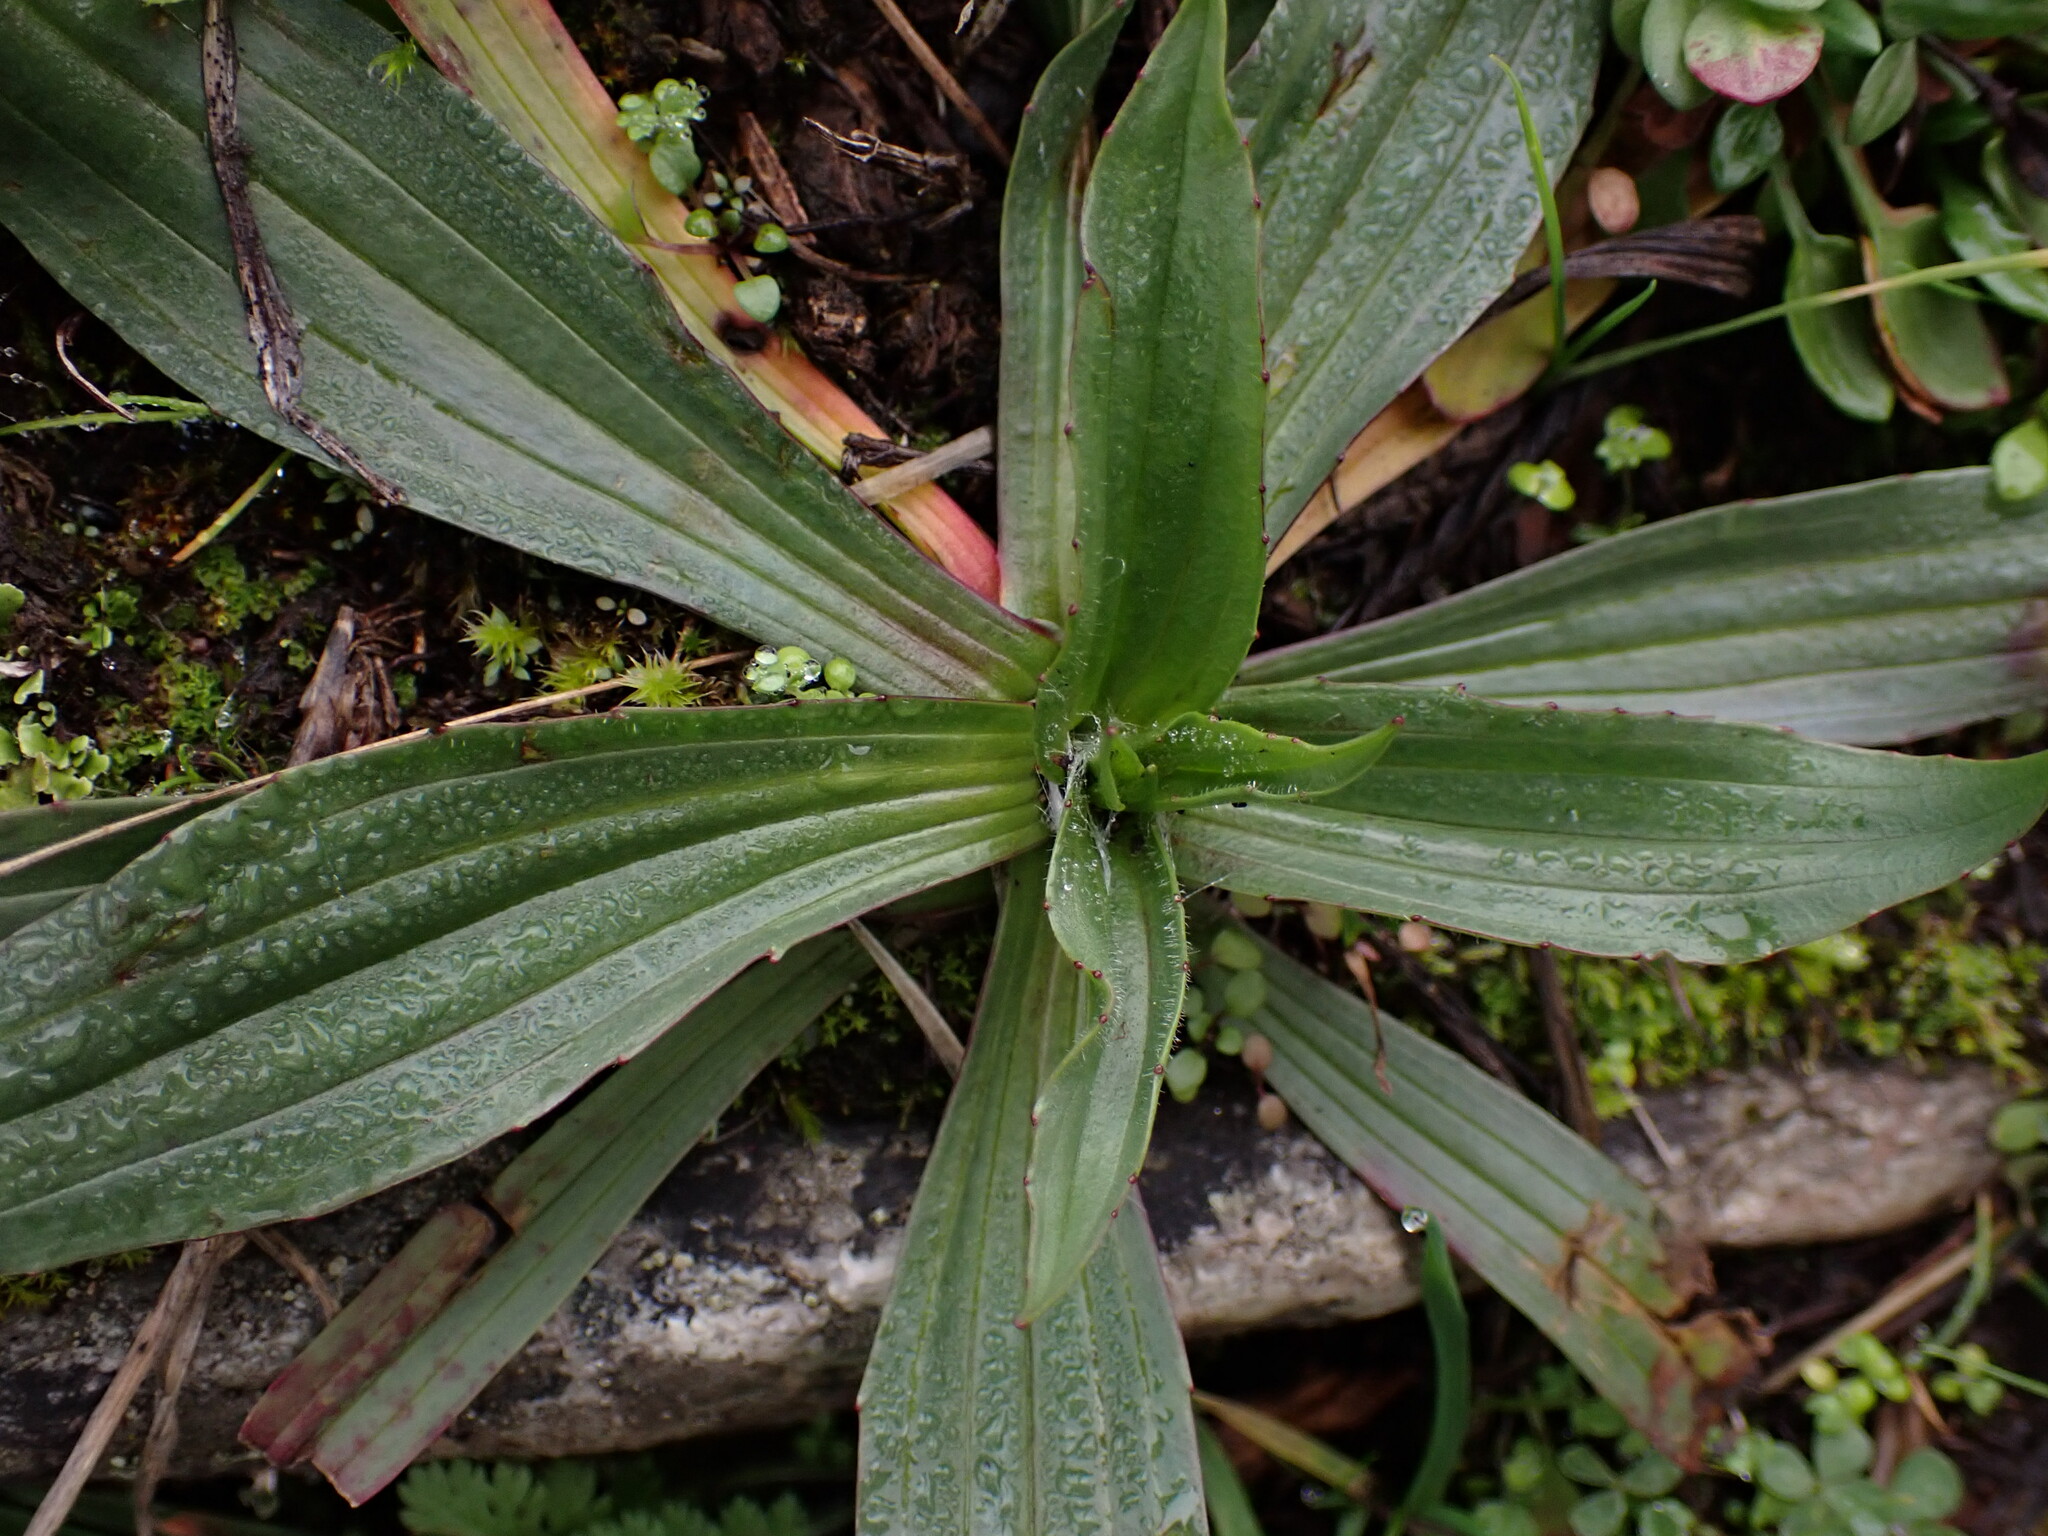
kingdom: Plantae
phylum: Tracheophyta
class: Magnoliopsida
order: Lamiales
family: Plantaginaceae
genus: Plantago
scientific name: Plantago lanceolata
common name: Ribwort plantain
